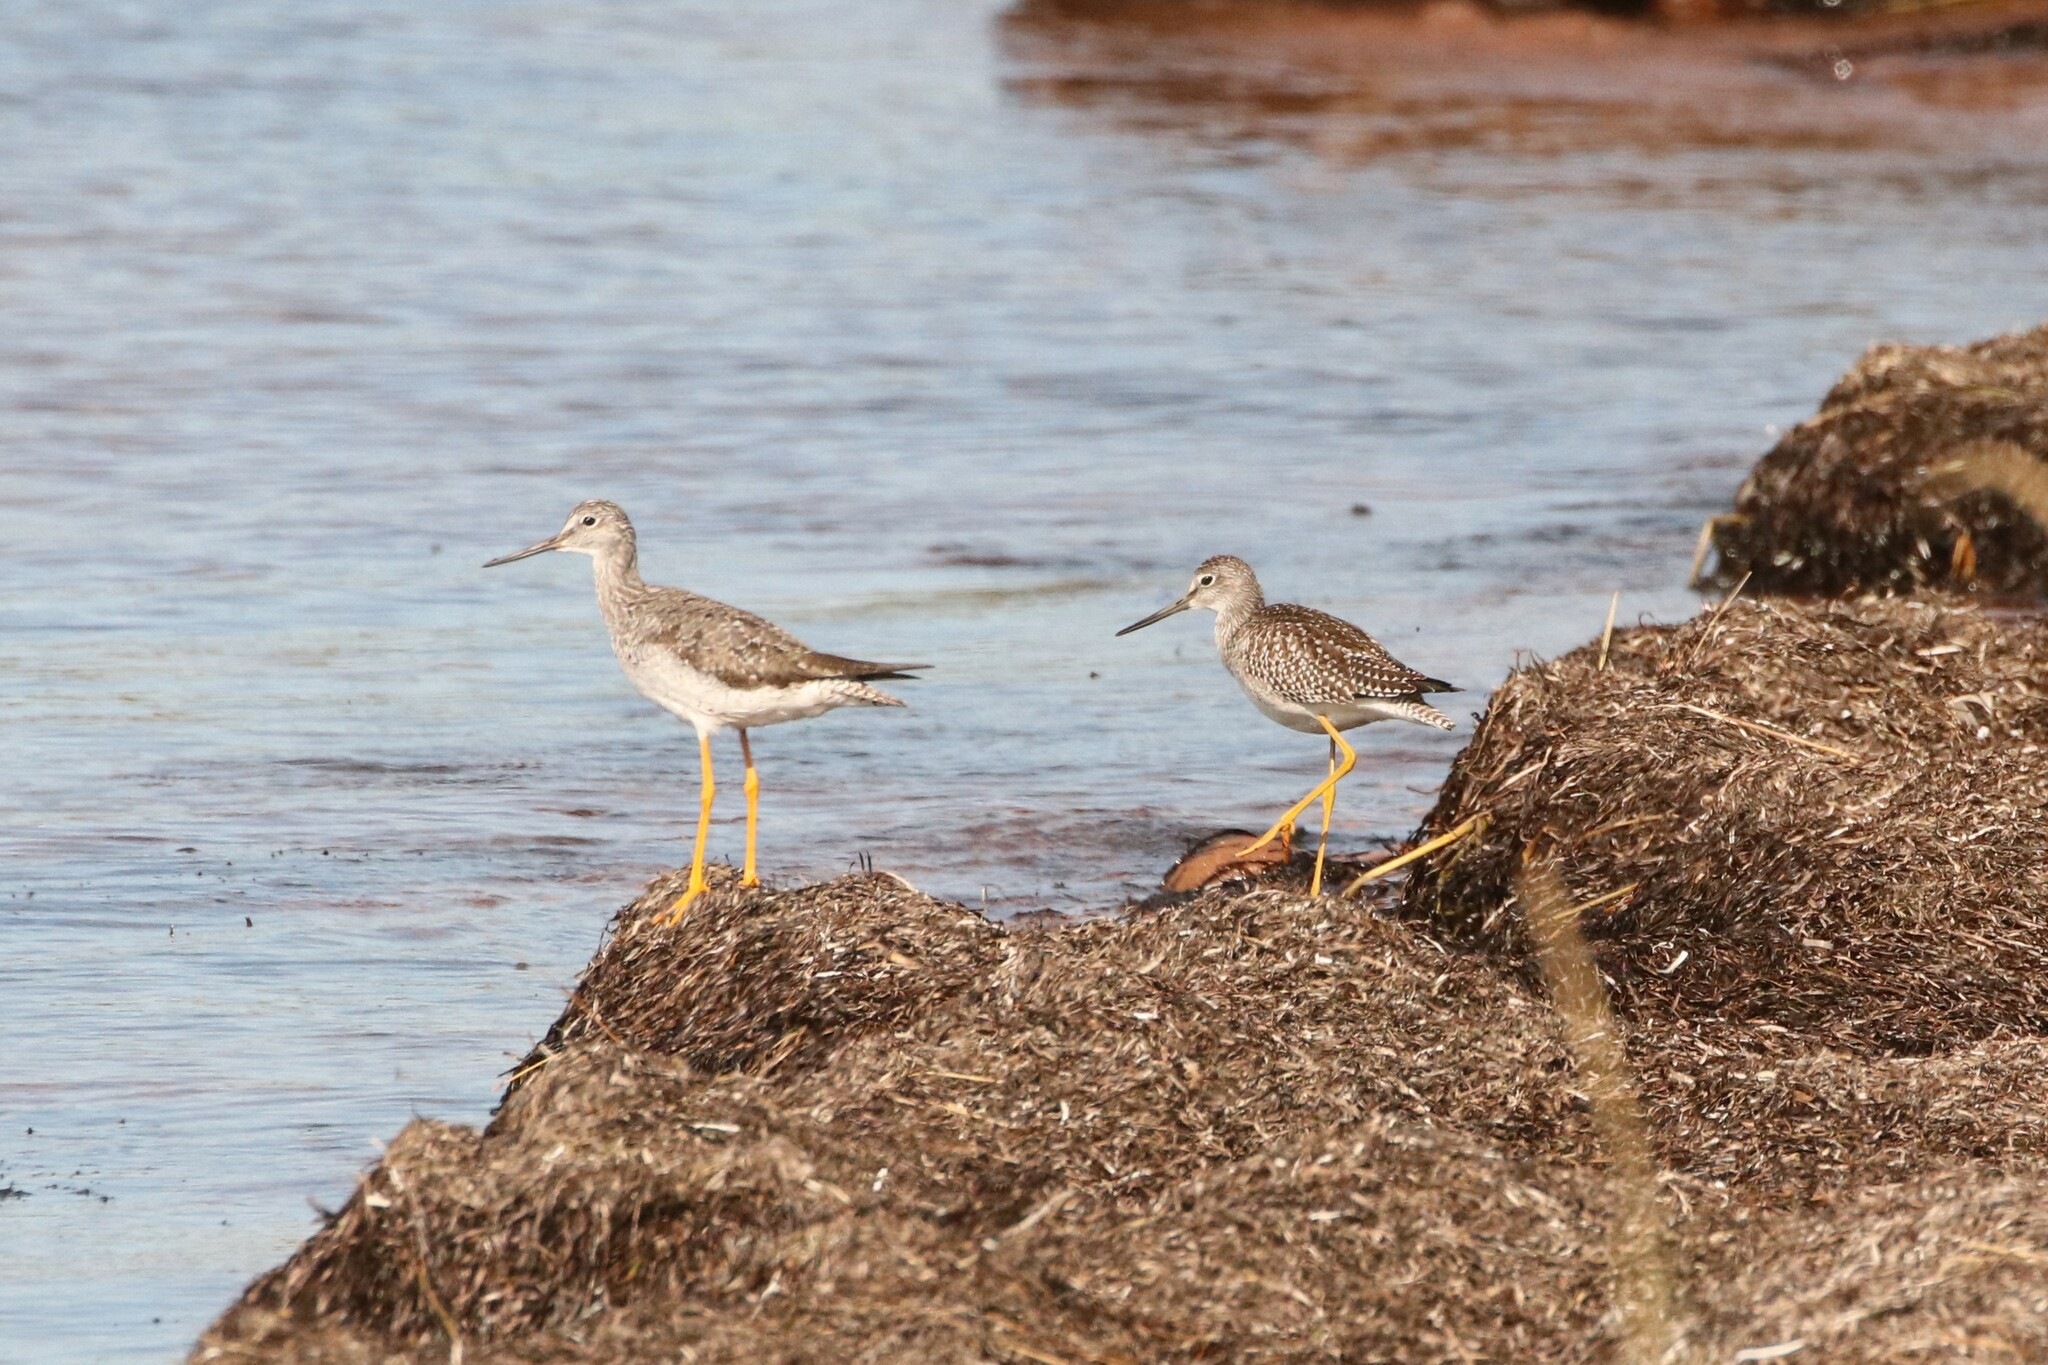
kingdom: Animalia
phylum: Chordata
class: Aves
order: Charadriiformes
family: Scolopacidae
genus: Tringa
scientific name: Tringa melanoleuca
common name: Greater yellowlegs
